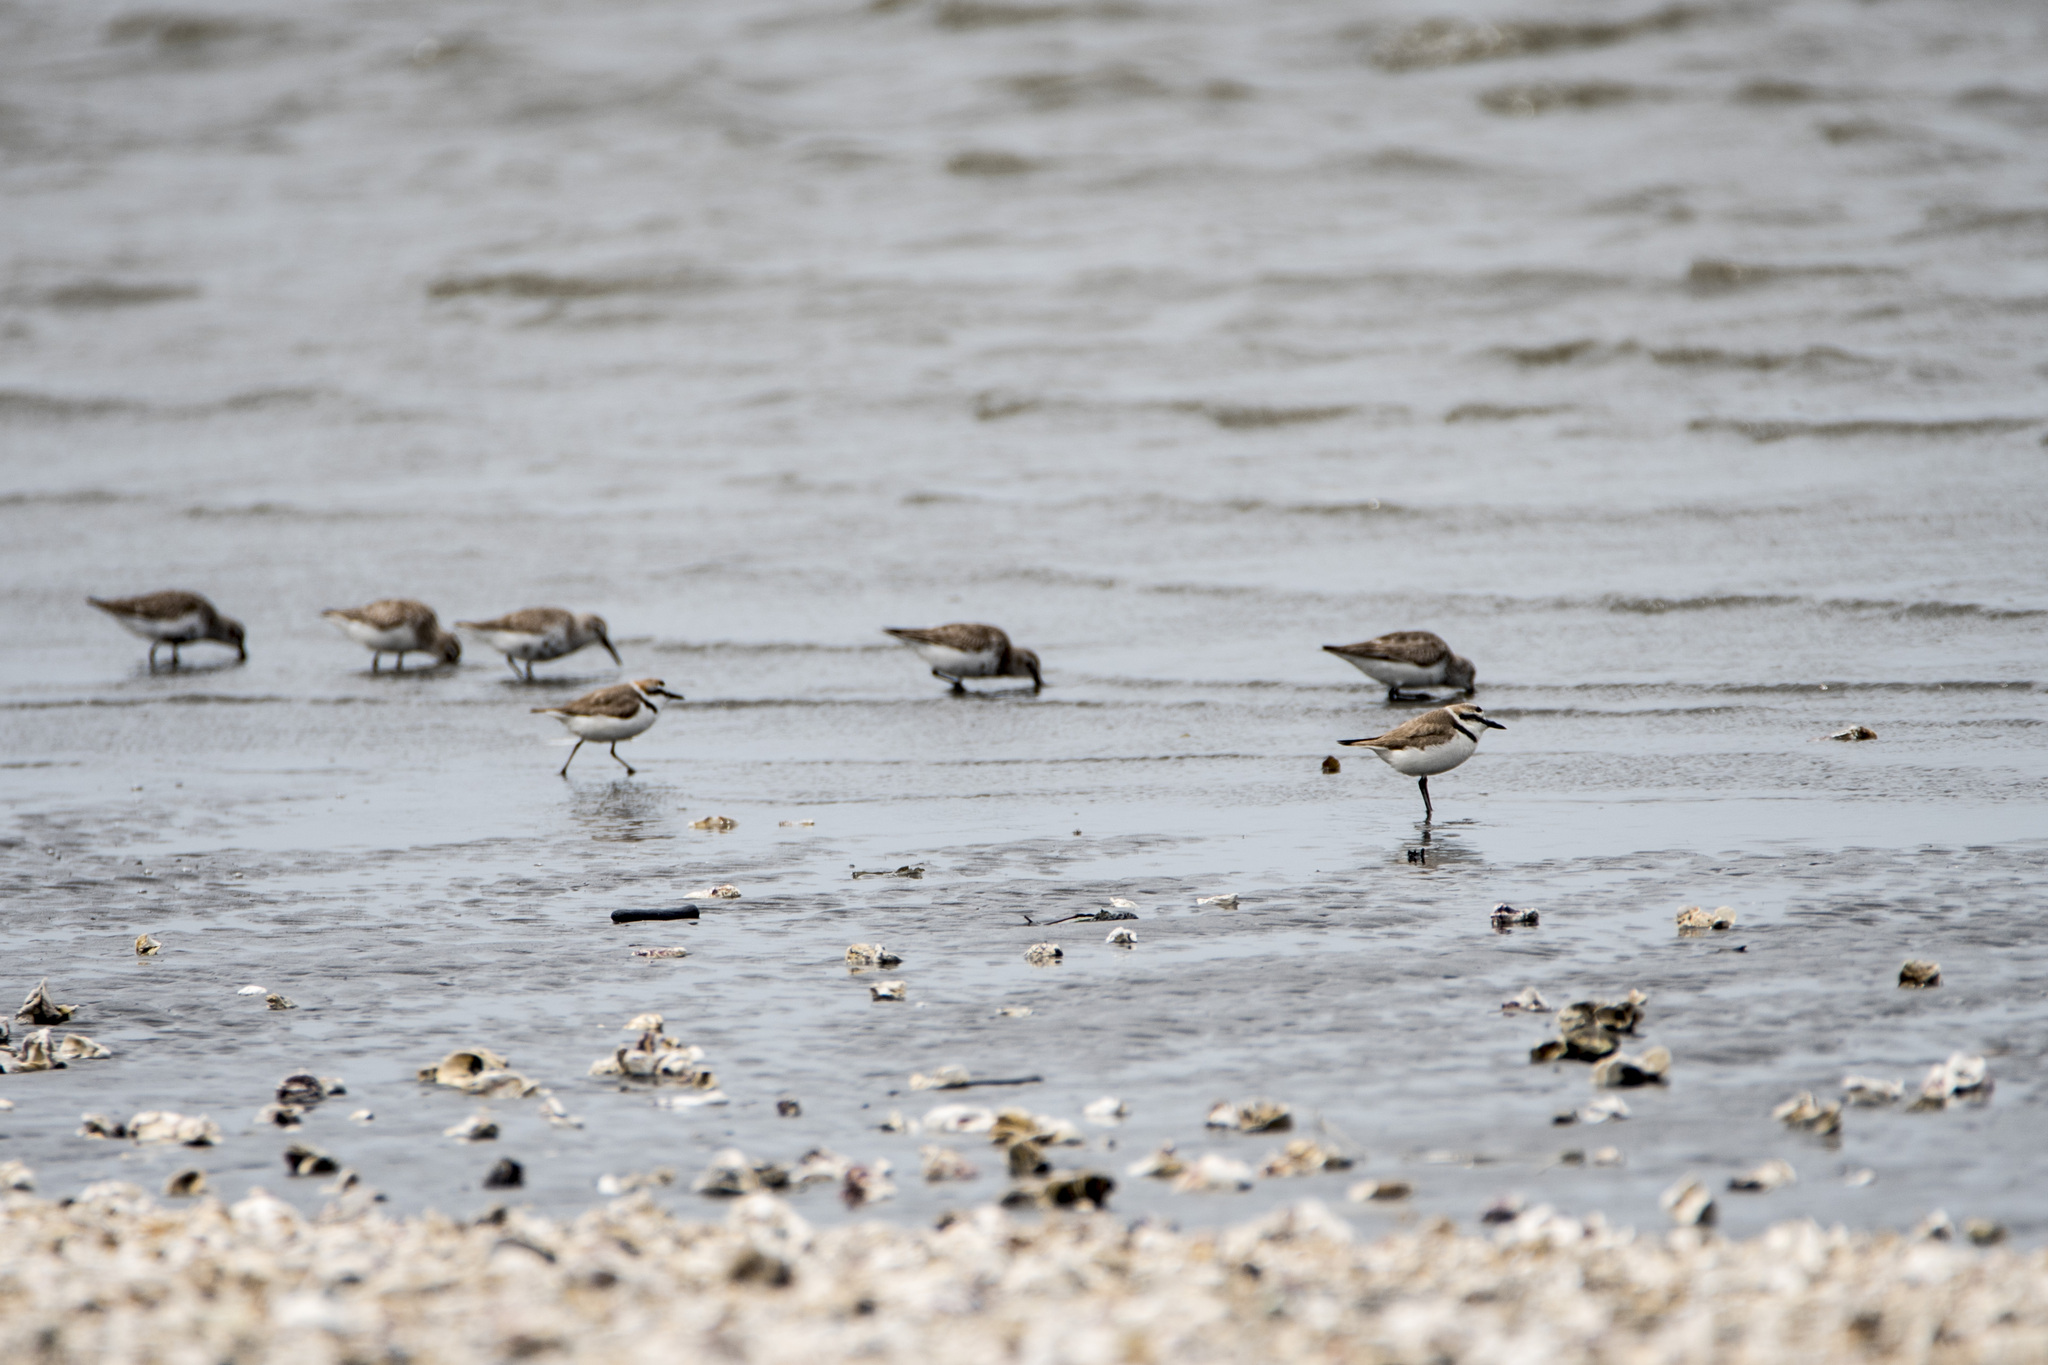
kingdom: Animalia
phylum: Chordata
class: Aves
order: Charadriiformes
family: Charadriidae
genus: Charadrius
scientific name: Charadrius alexandrinus
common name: Kentish plover
